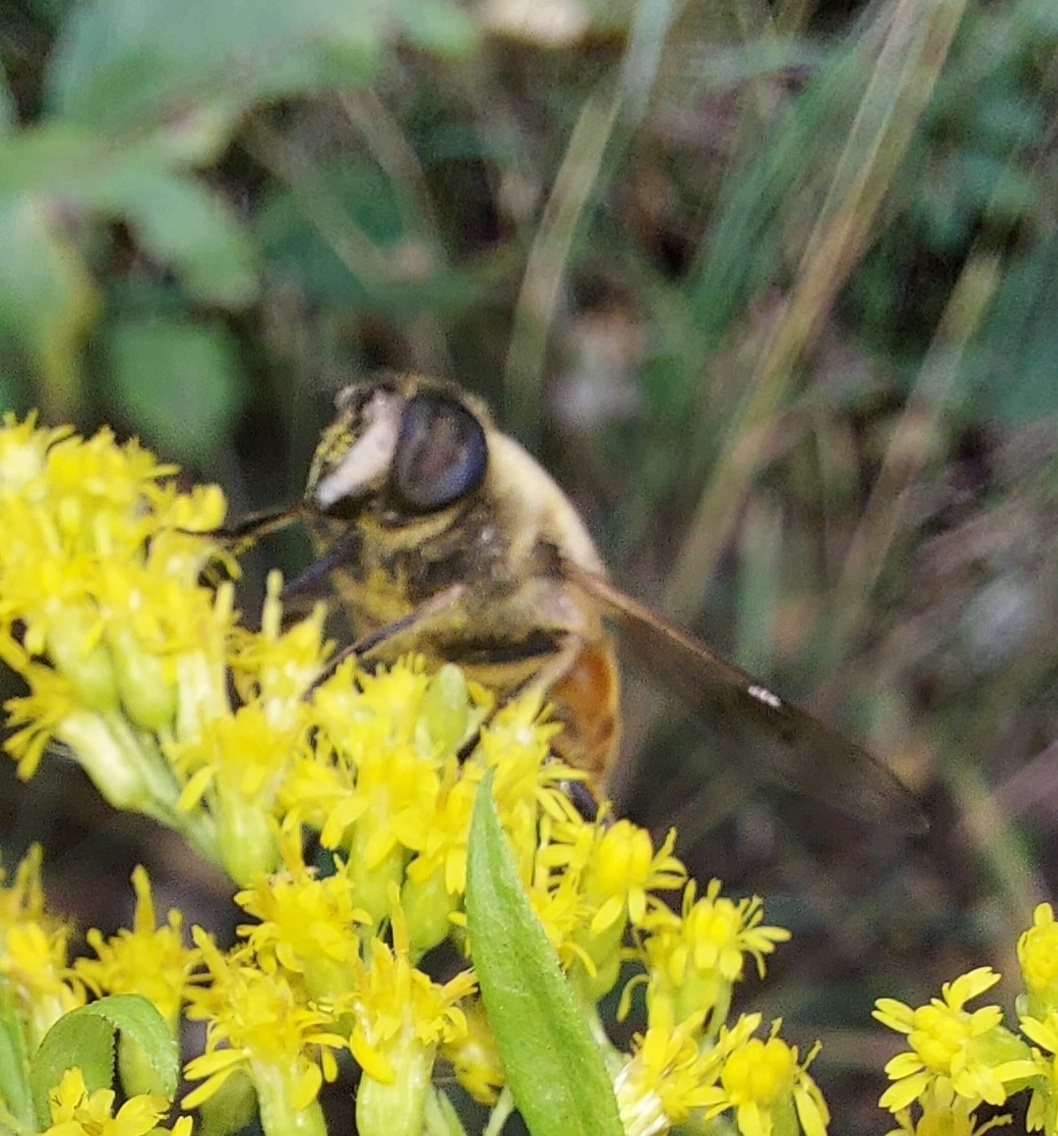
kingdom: Animalia
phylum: Arthropoda
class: Insecta
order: Diptera
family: Syrphidae
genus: Eristalis
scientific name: Eristalis tenax
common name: Drone fly
